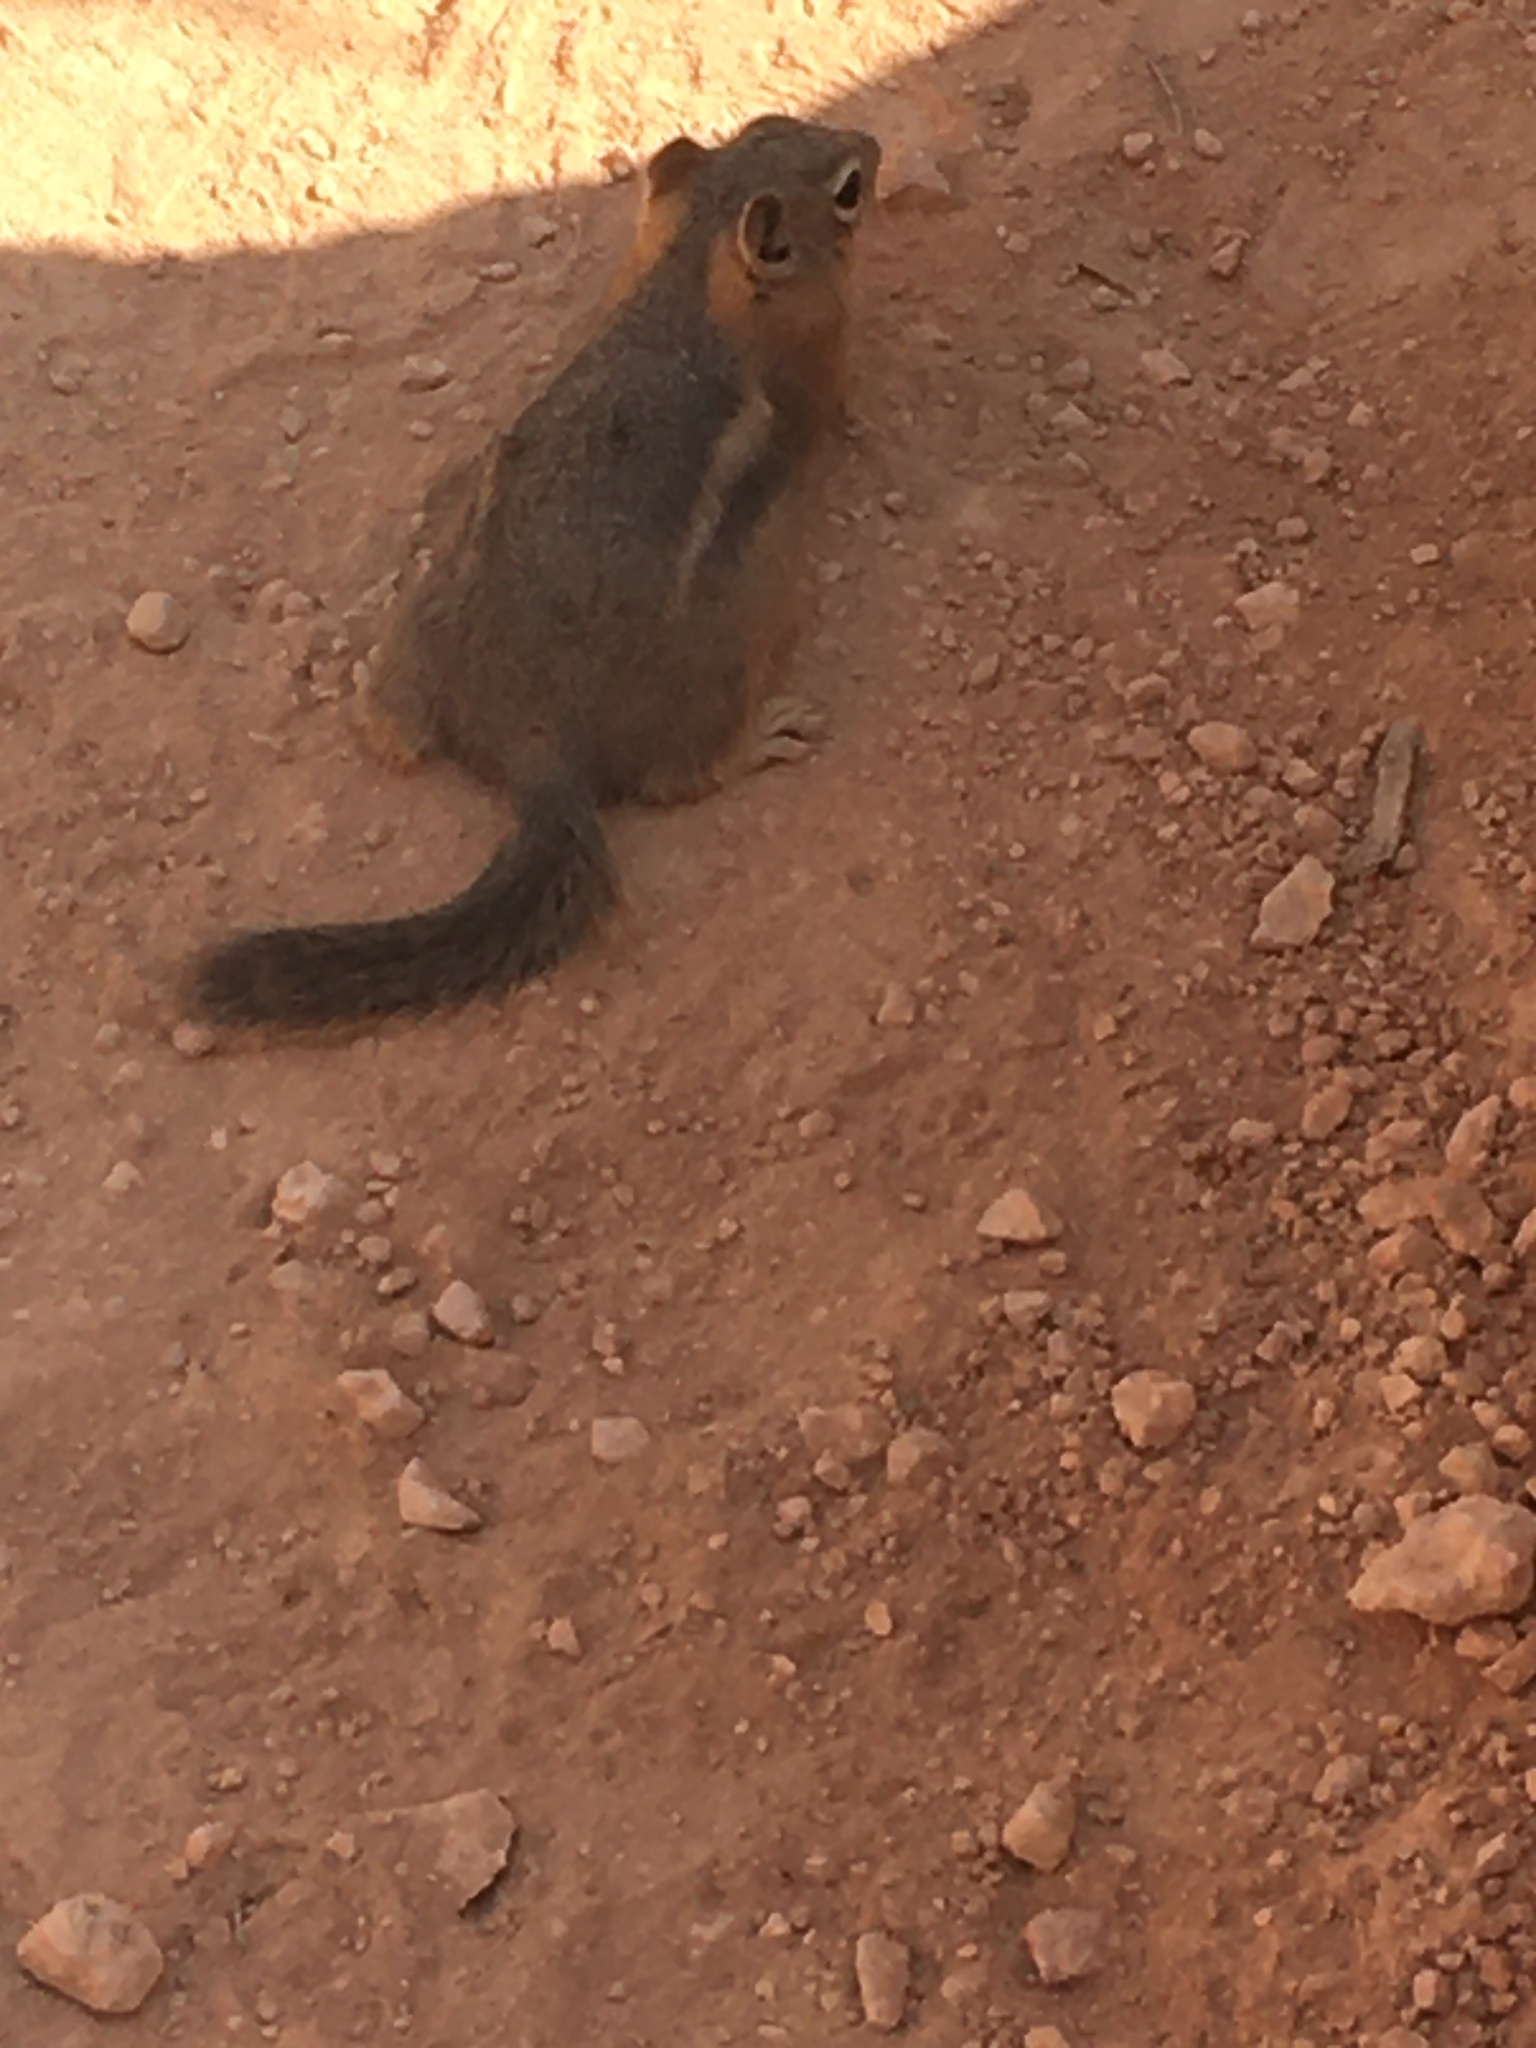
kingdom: Animalia
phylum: Chordata
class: Mammalia
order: Rodentia
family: Sciuridae
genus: Callospermophilus
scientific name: Callospermophilus lateralis
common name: Golden-mantled ground squirrel
